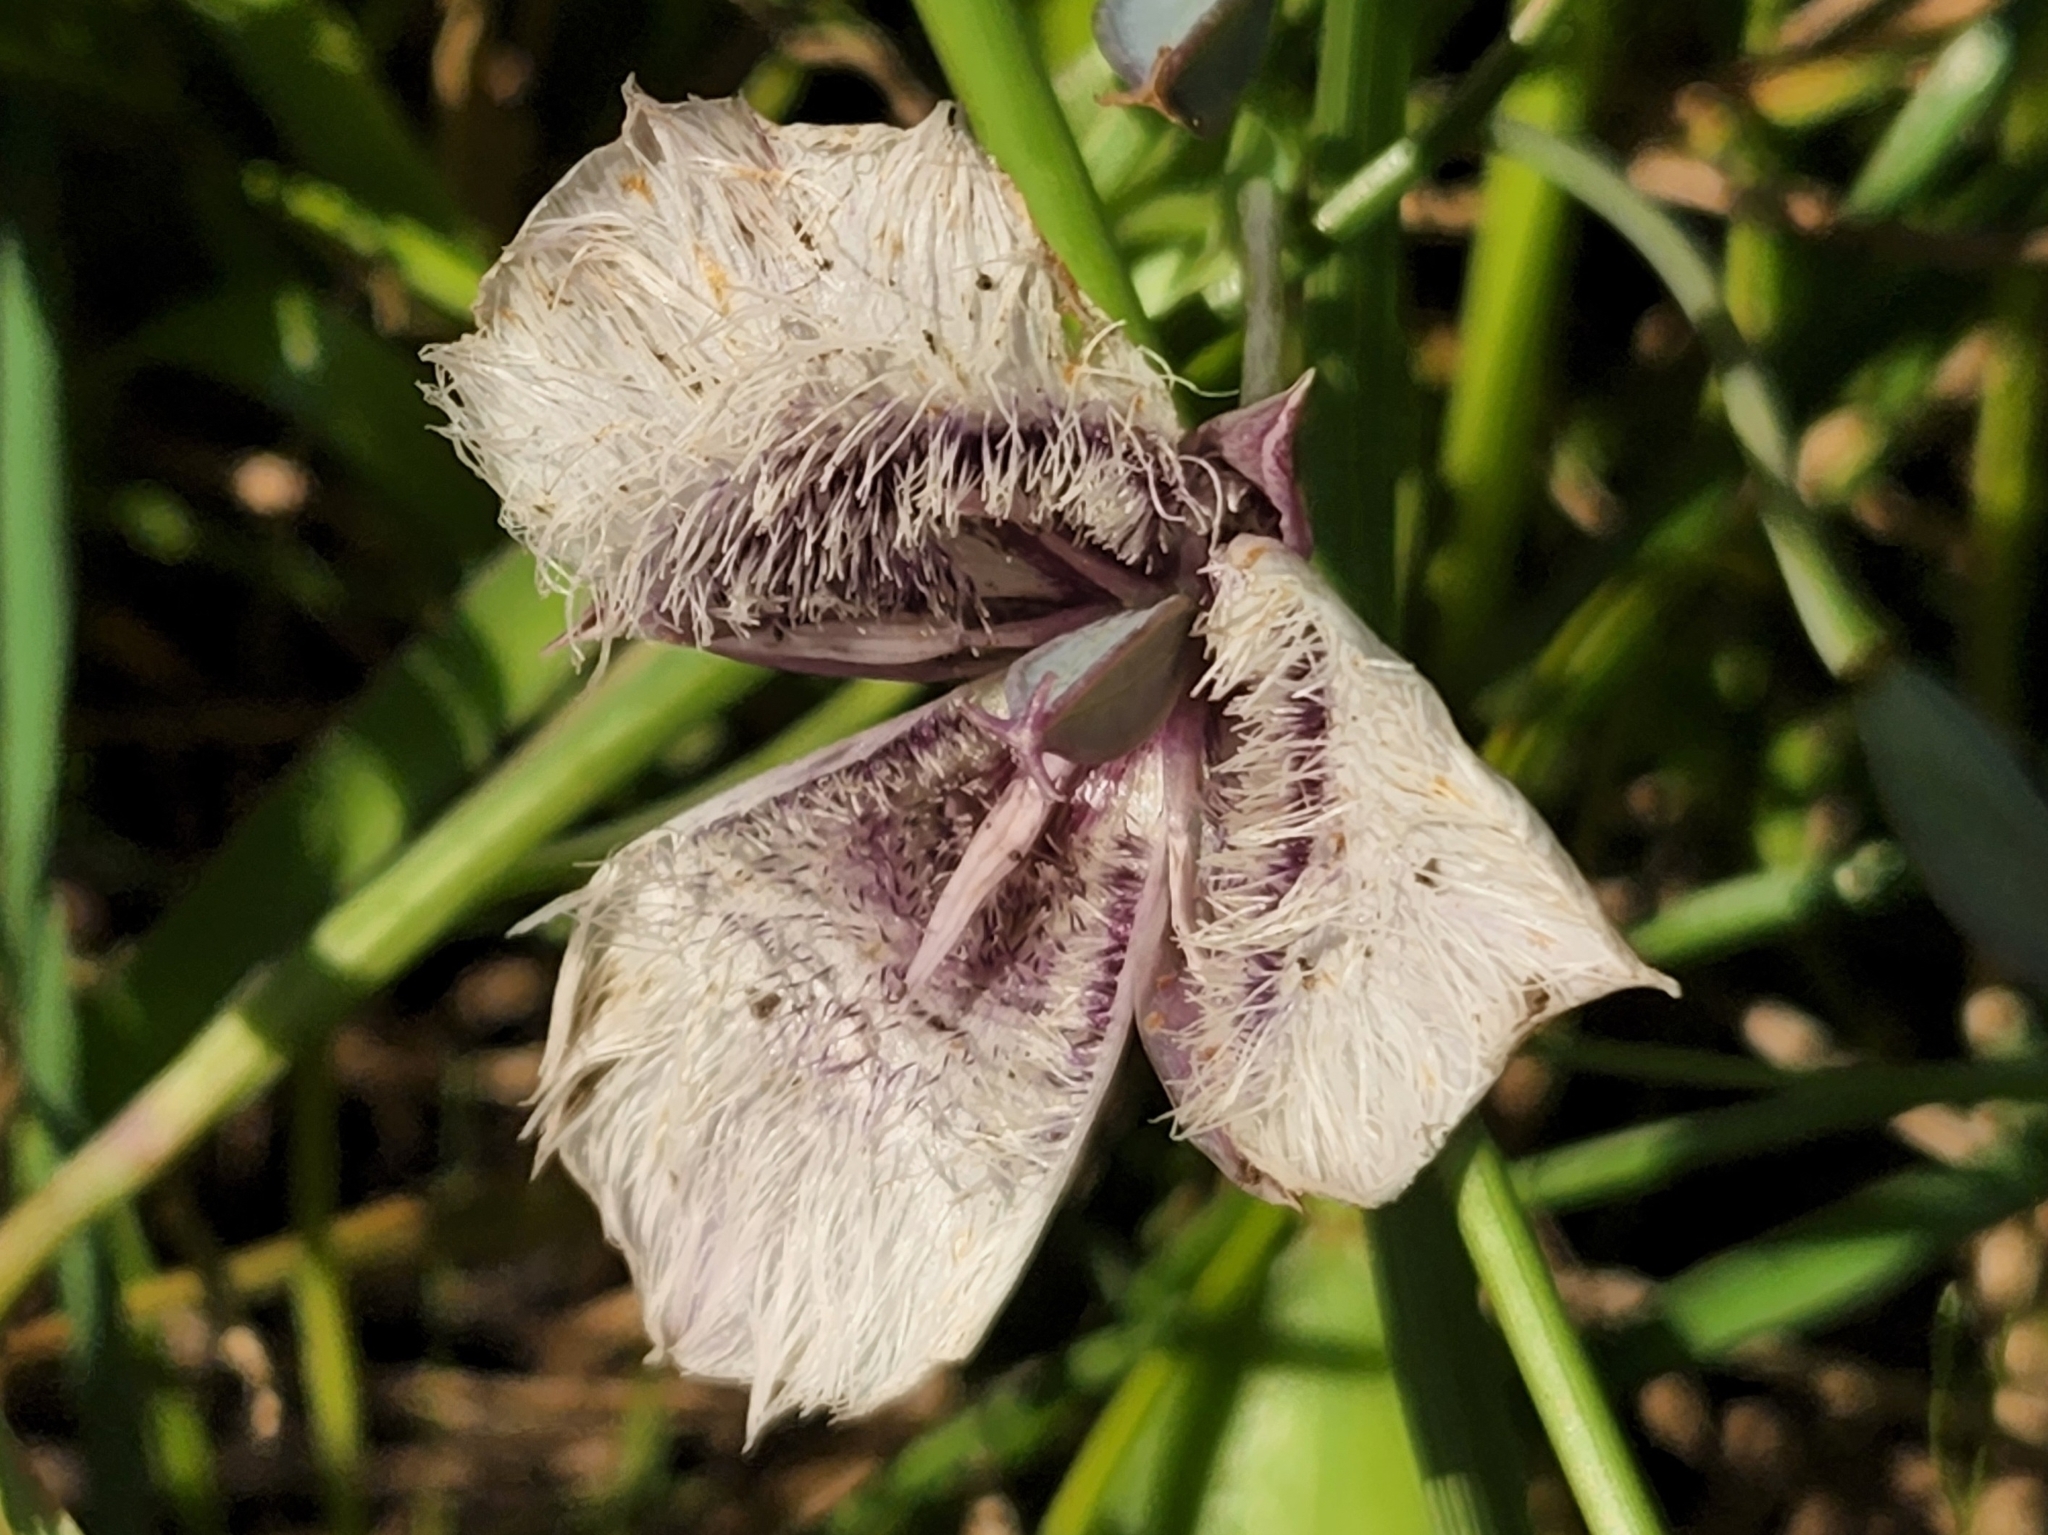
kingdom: Plantae
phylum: Tracheophyta
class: Liliopsida
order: Liliales
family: Liliaceae
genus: Calochortus
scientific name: Calochortus tolmiei
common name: Pussy-ears
